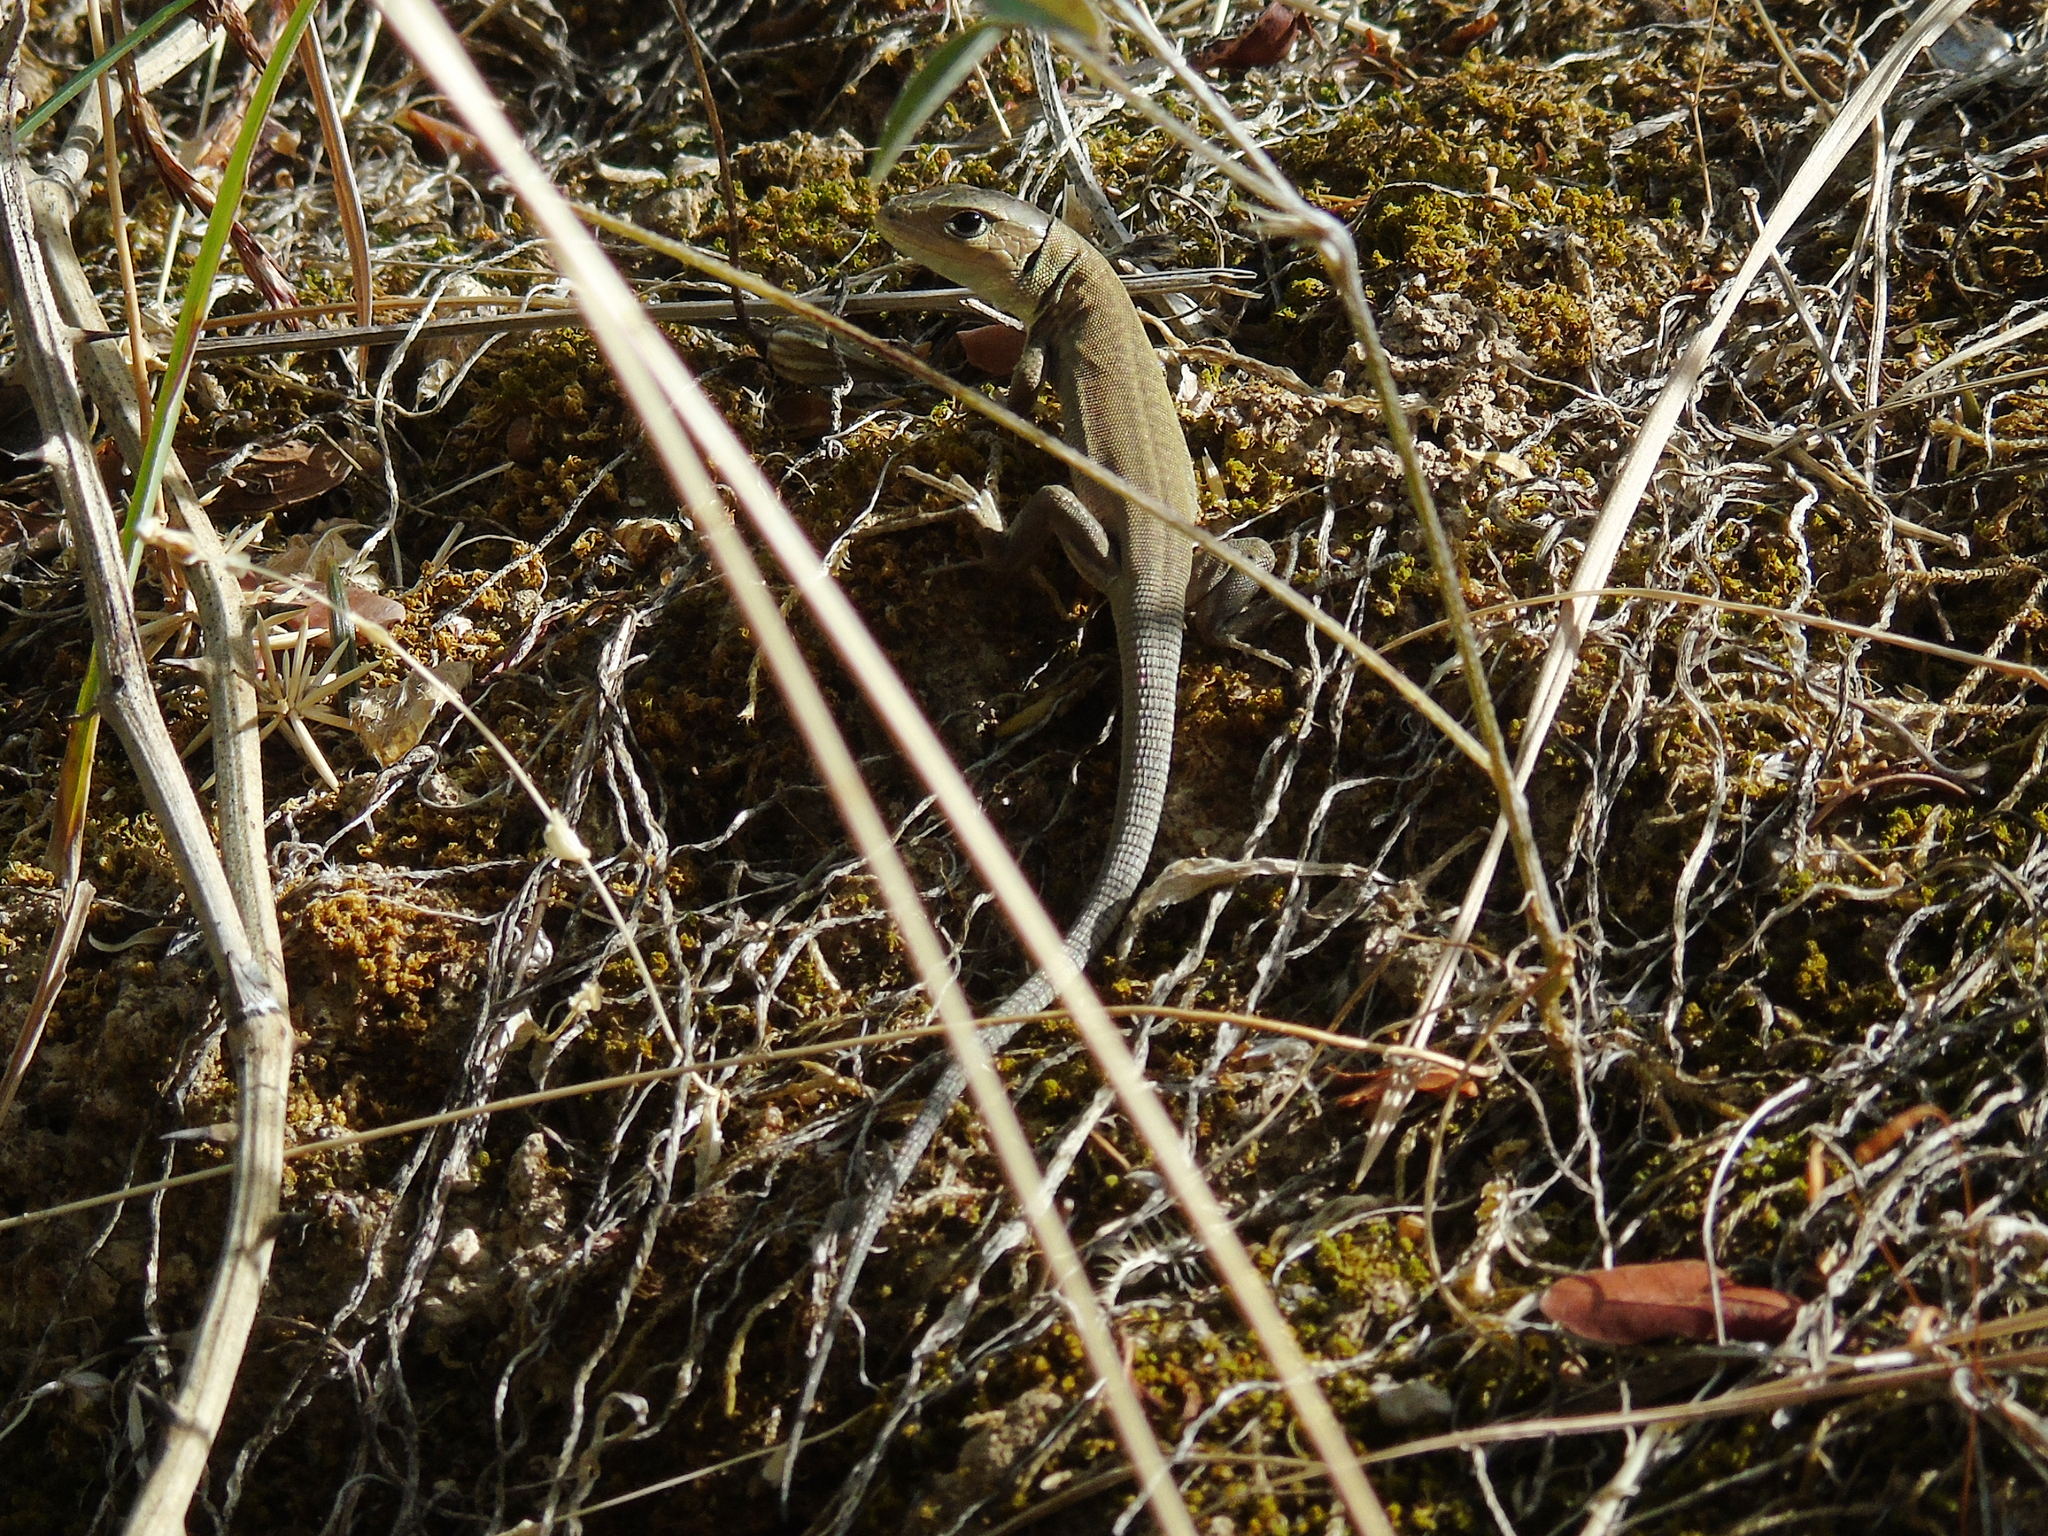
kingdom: Animalia
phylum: Chordata
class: Squamata
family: Lacertidae
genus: Lacerta
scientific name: Lacerta trilineata
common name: Balkan green lizard
